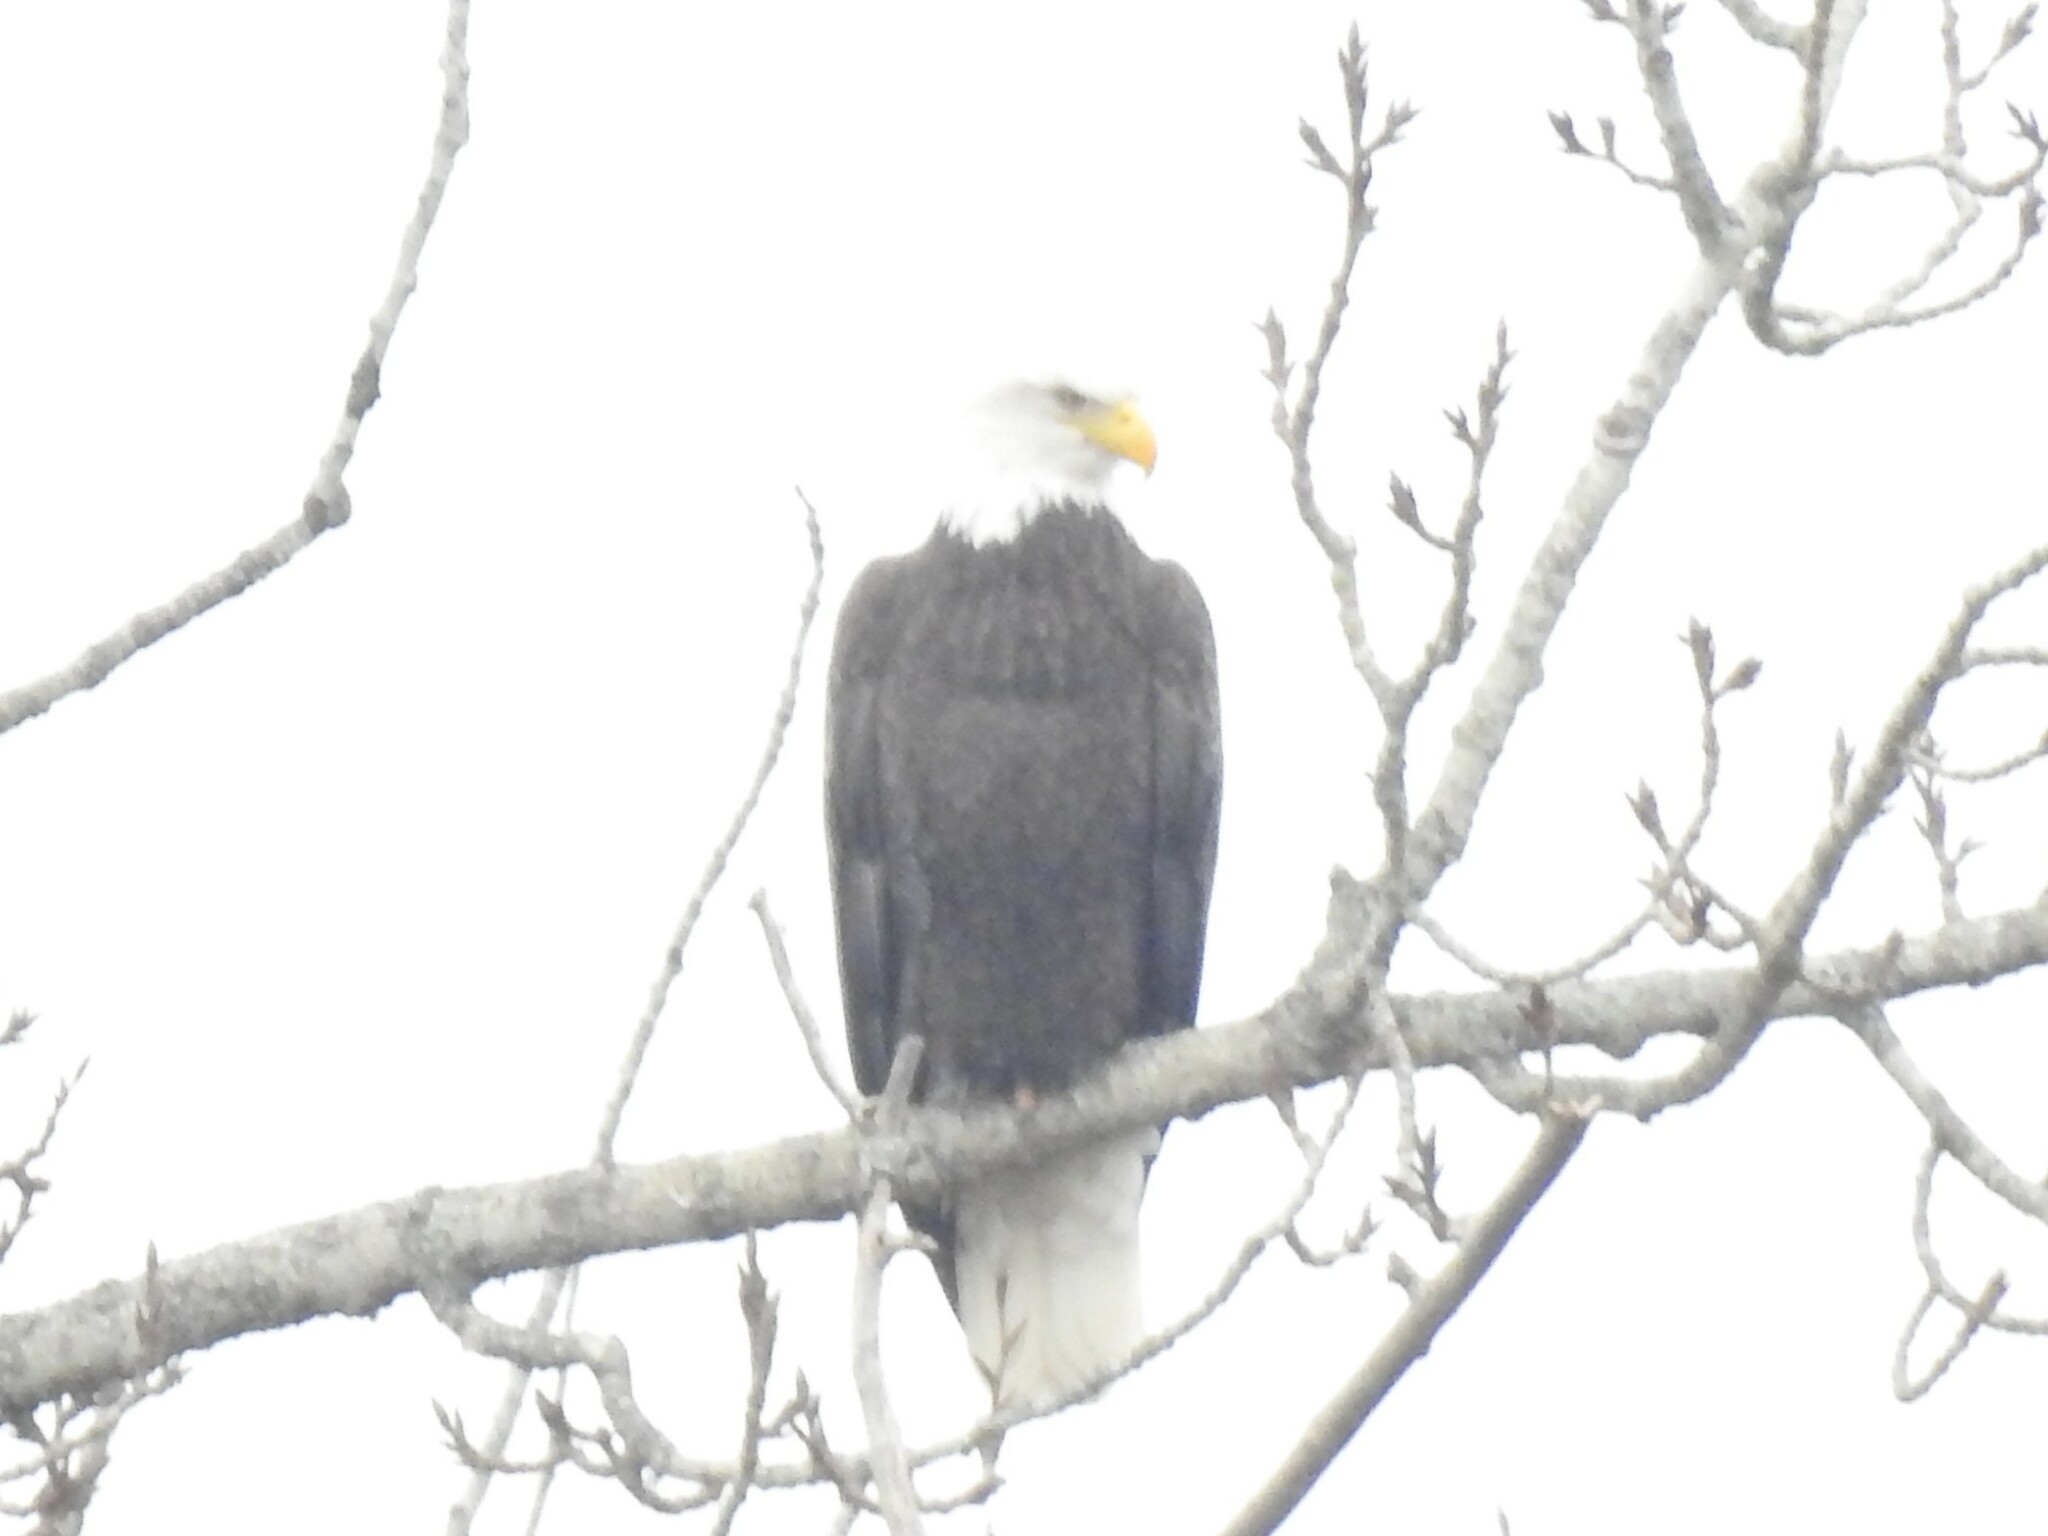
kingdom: Animalia
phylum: Chordata
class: Aves
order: Accipitriformes
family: Accipitridae
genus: Haliaeetus
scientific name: Haliaeetus leucocephalus
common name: Bald eagle
